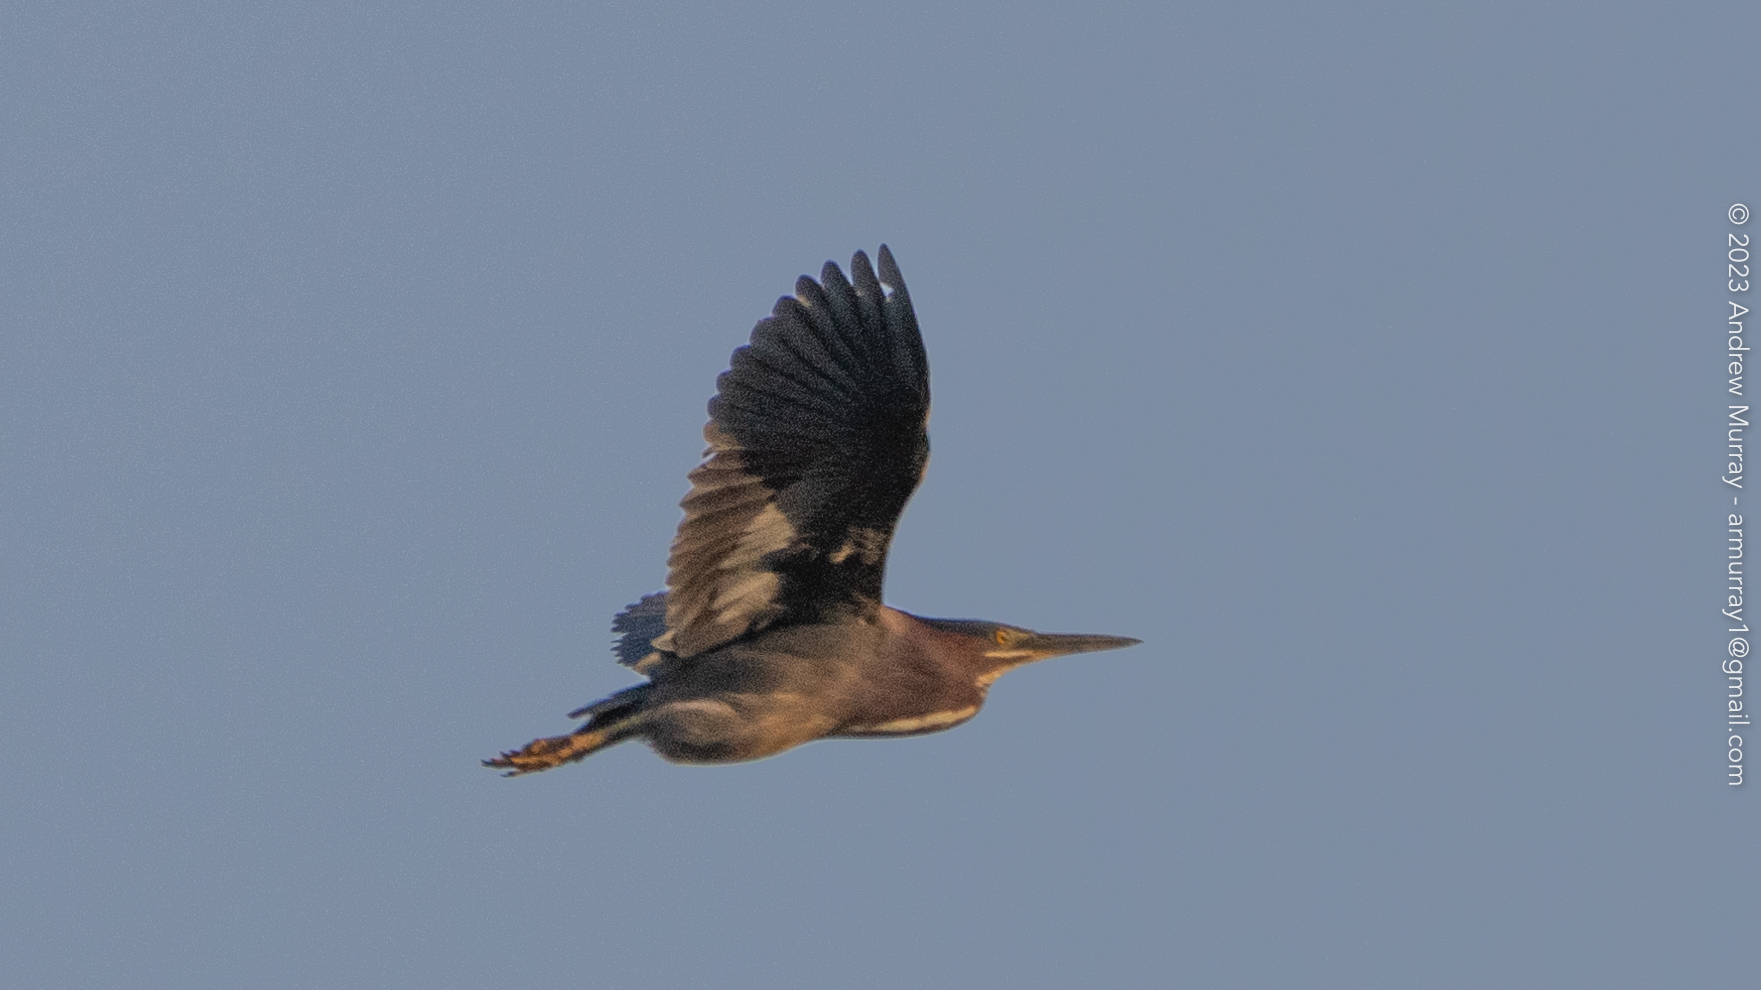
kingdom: Animalia
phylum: Chordata
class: Aves
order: Pelecaniformes
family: Ardeidae
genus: Butorides
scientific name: Butorides virescens
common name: Green heron
